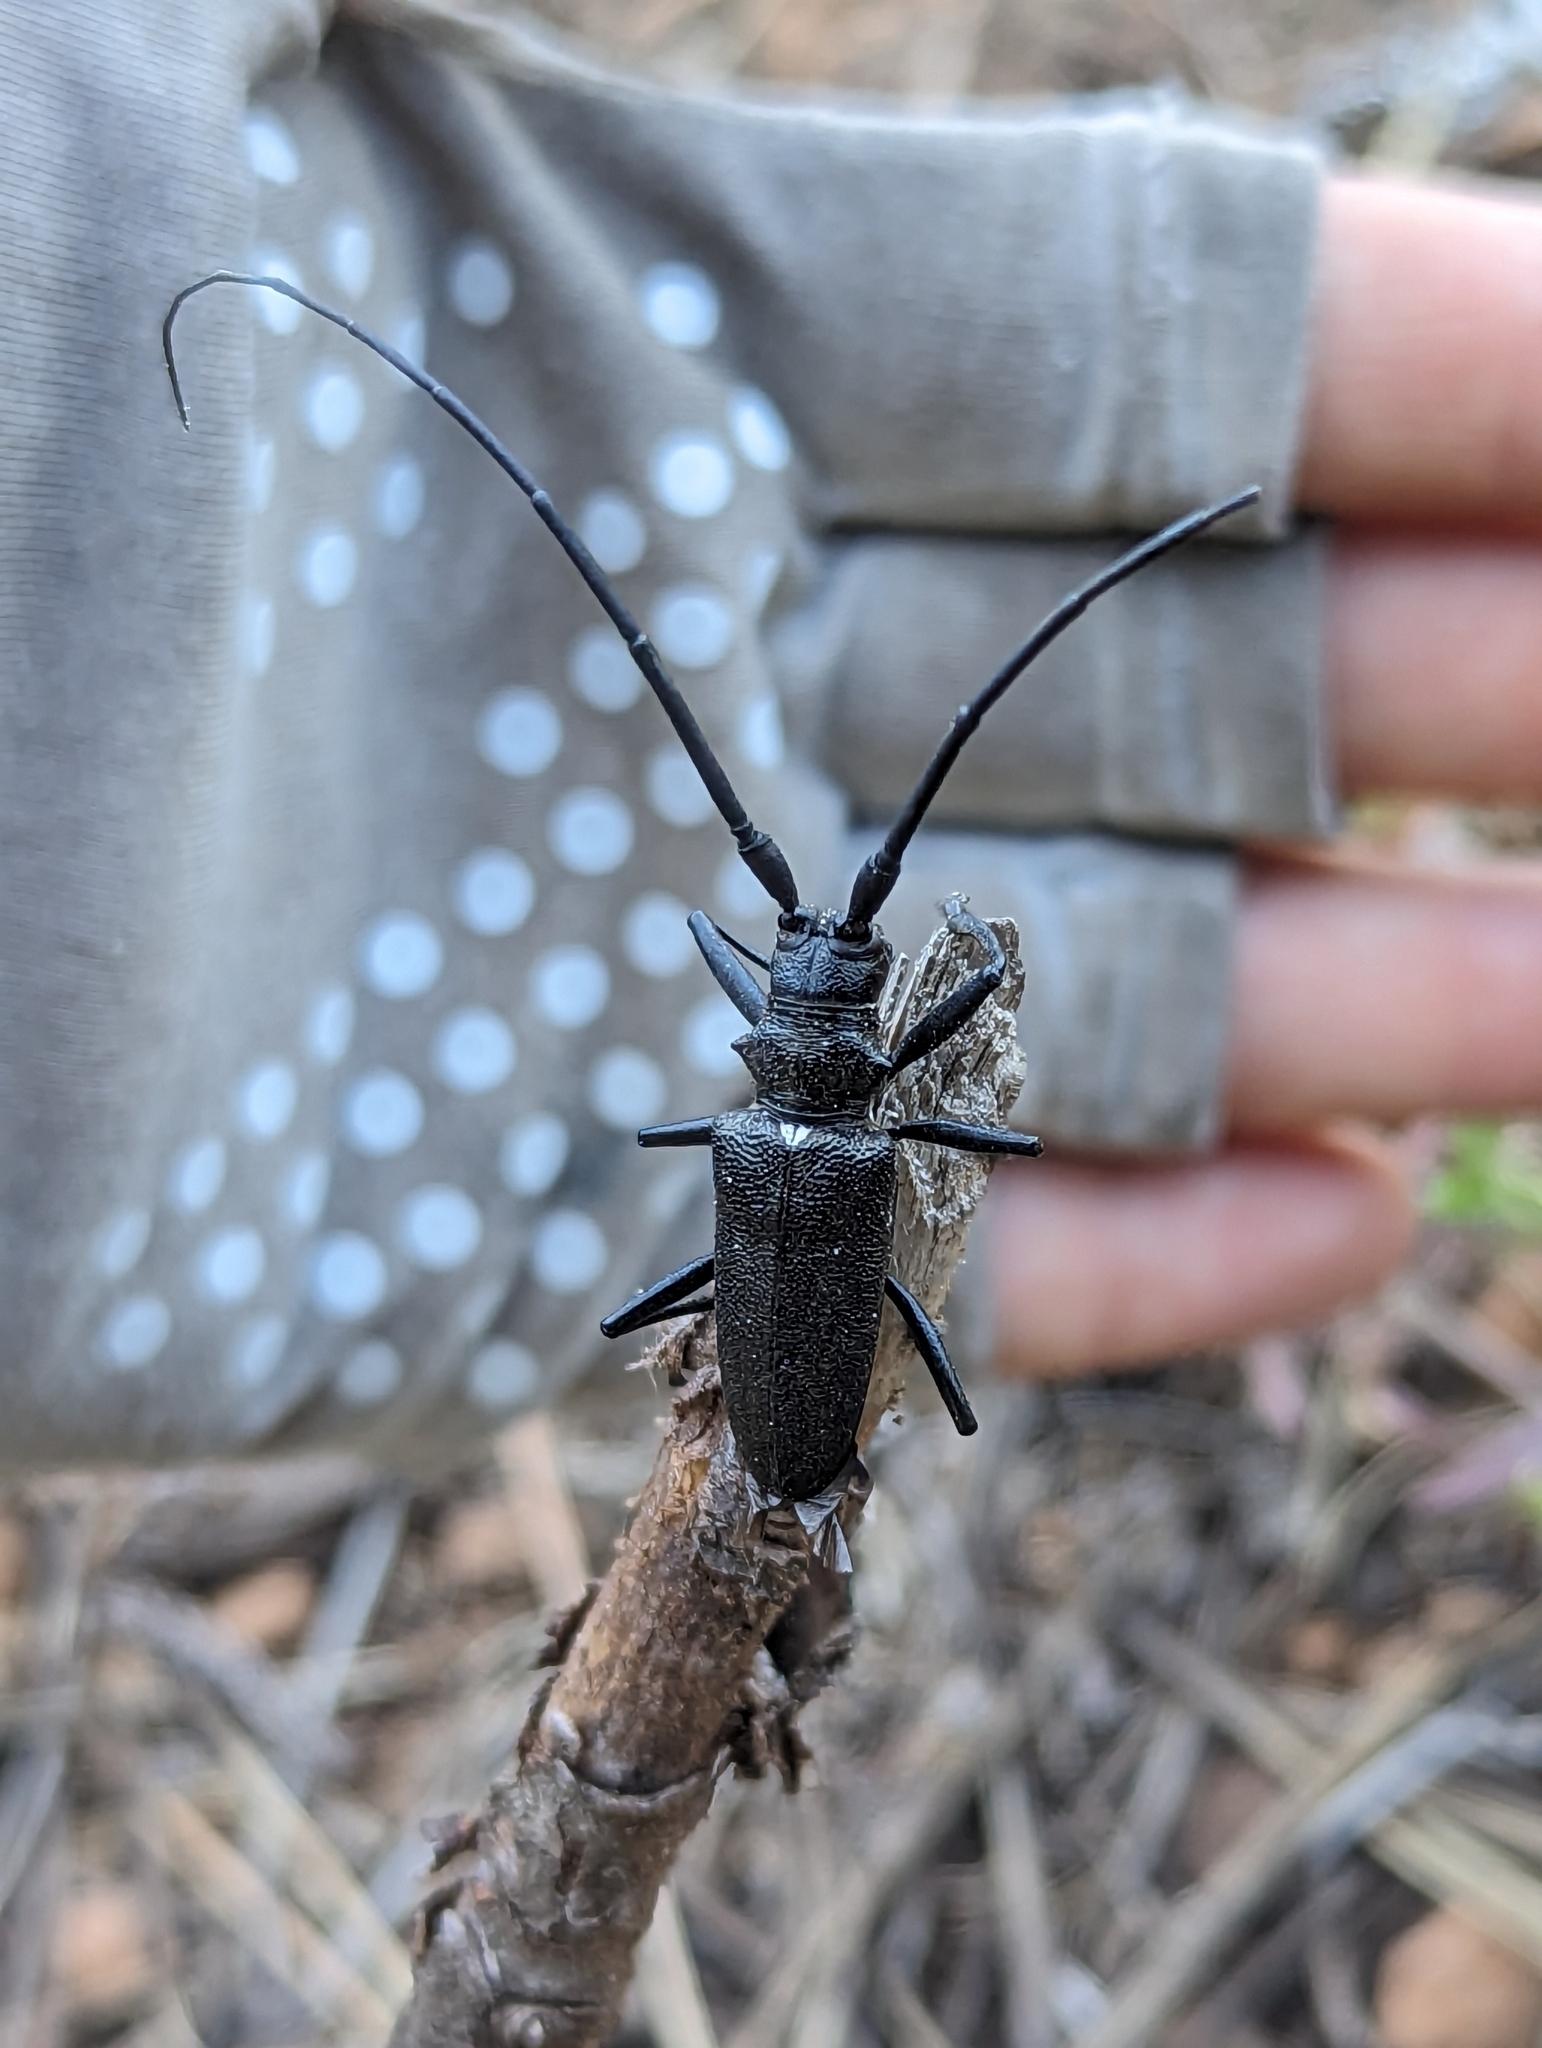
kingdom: Animalia
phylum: Arthropoda
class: Insecta
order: Coleoptera
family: Cerambycidae
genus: Monochamus
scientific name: Monochamus scutellatus
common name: White-spotted sawyer beetle
